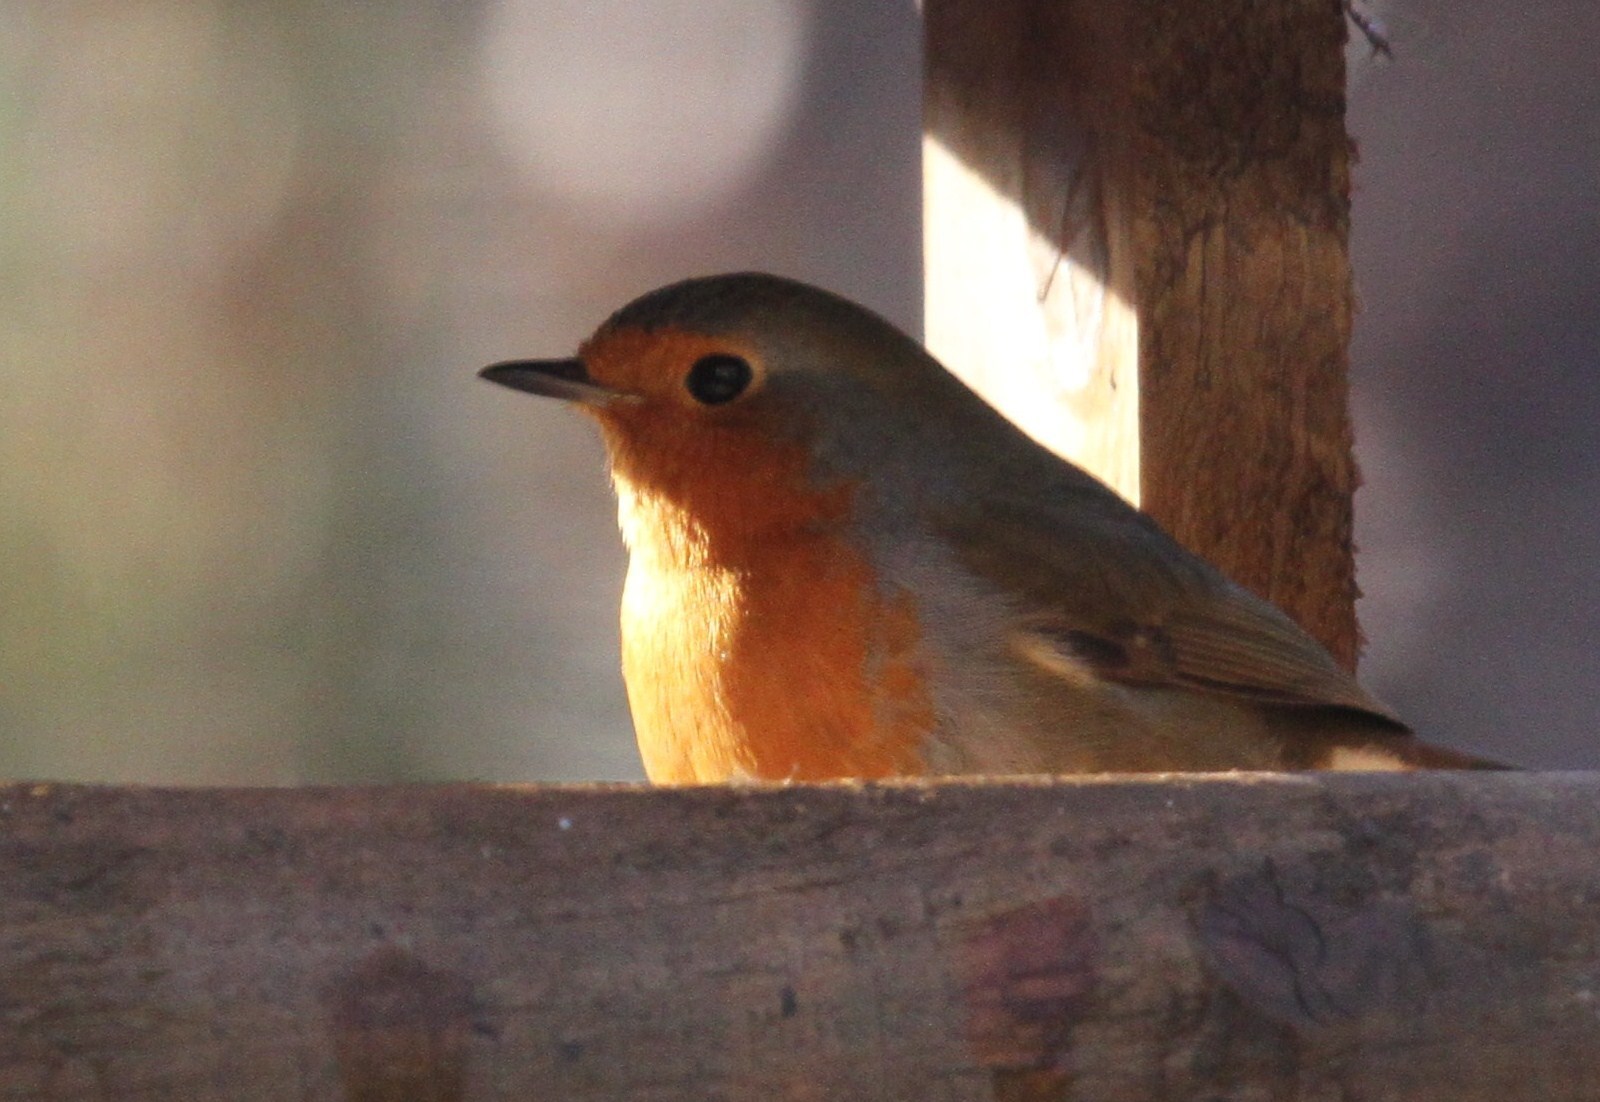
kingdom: Animalia
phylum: Chordata
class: Aves
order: Passeriformes
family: Muscicapidae
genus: Erithacus
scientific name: Erithacus rubecula
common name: European robin
